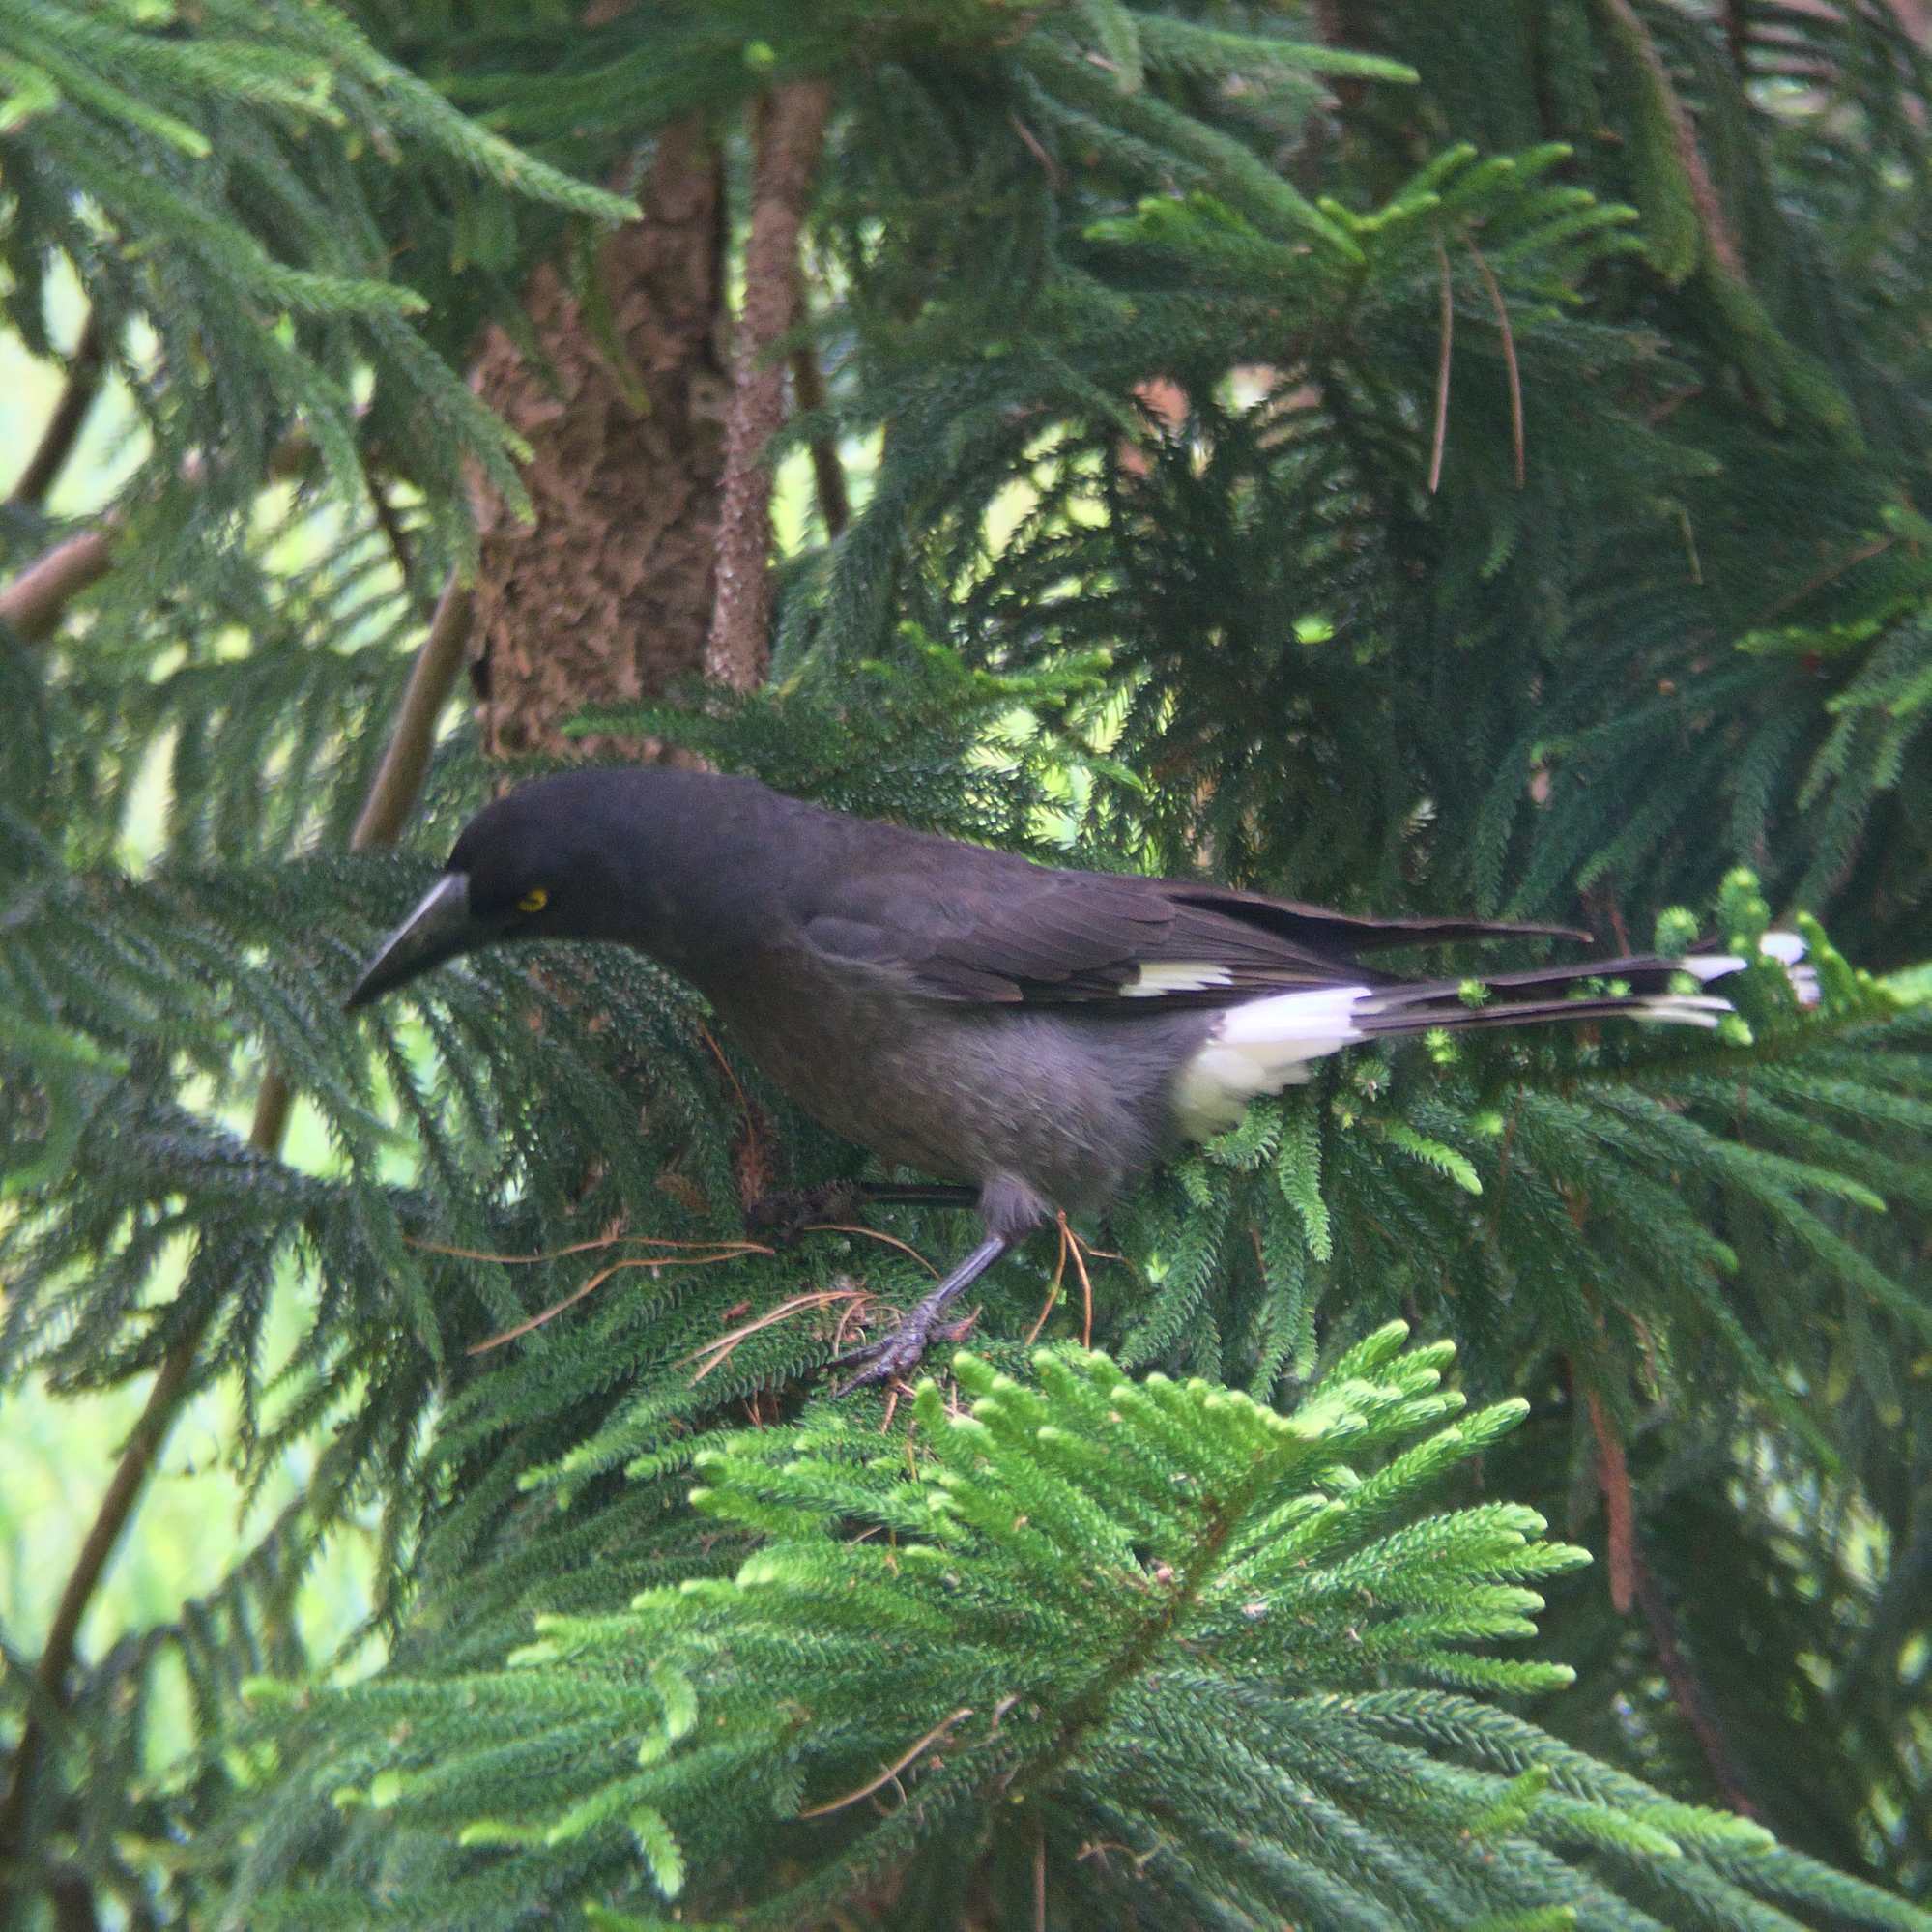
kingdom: Animalia
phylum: Chordata
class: Aves
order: Passeriformes
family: Cracticidae
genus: Strepera
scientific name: Strepera graculina
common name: Pied currawong
